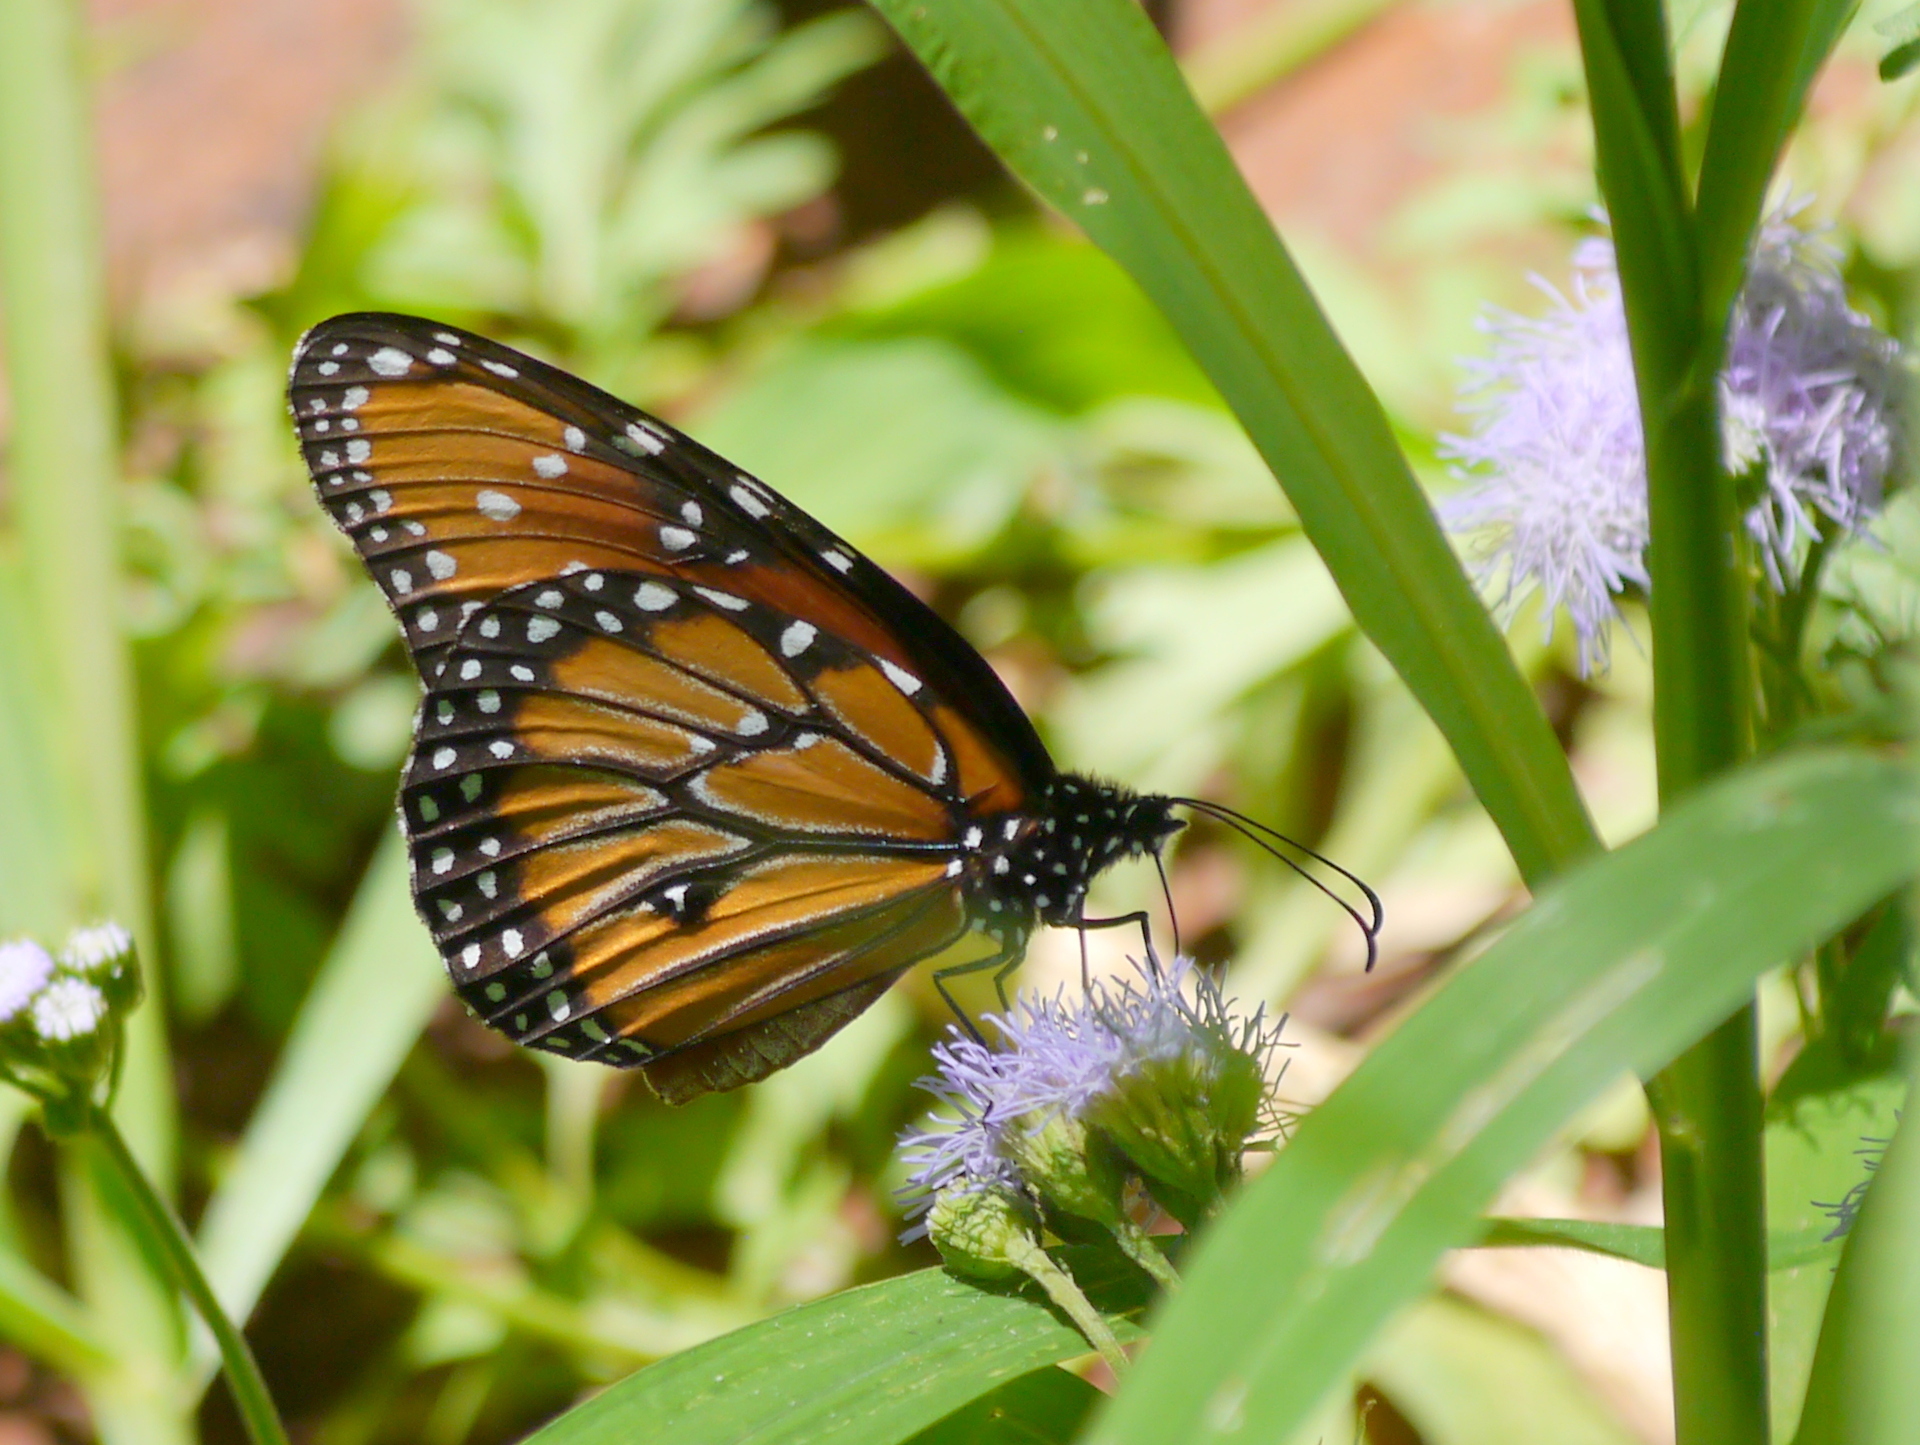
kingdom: Animalia
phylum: Arthropoda
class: Insecta
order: Lepidoptera
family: Nymphalidae
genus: Danaus
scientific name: Danaus gilippus
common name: Queen
